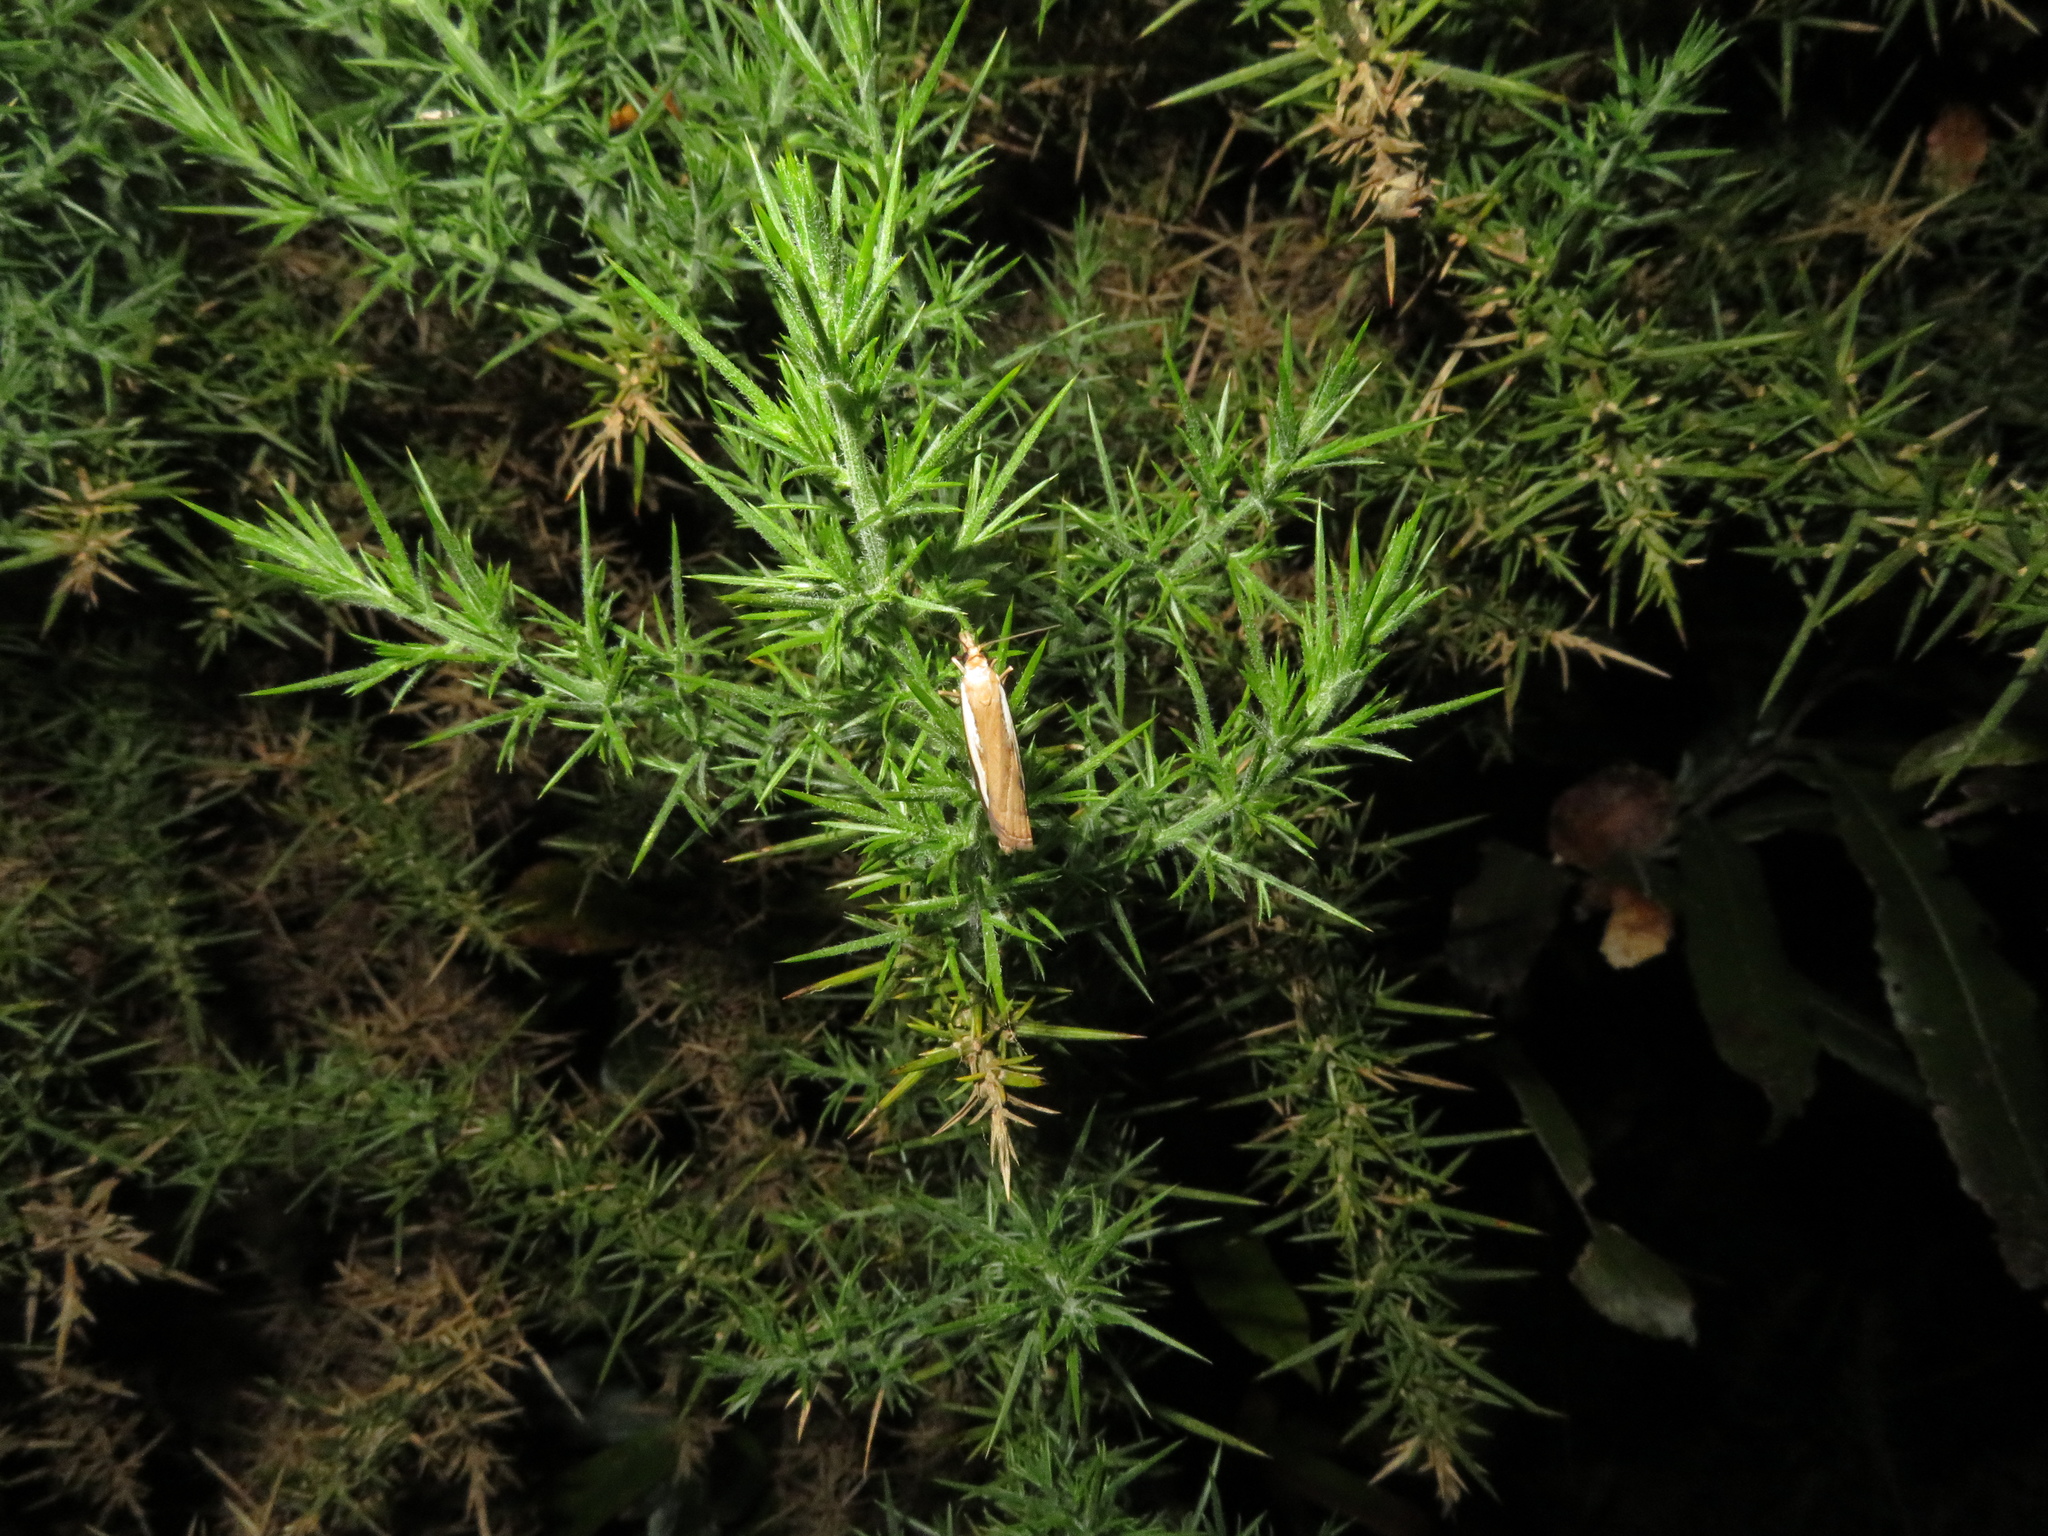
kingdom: Animalia
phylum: Arthropoda
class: Insecta
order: Lepidoptera
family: Crambidae
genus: Orocrambus
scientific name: Orocrambus flexuosellus
